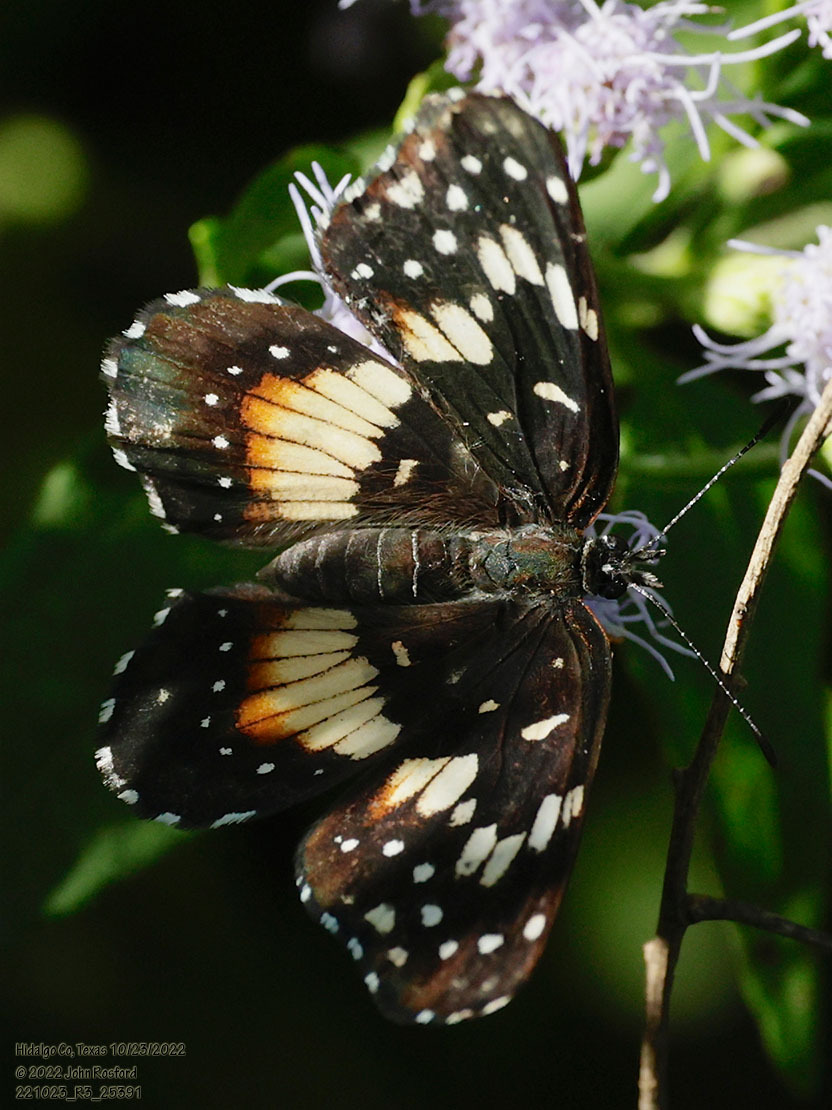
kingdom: Animalia
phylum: Arthropoda
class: Insecta
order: Lepidoptera
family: Nymphalidae
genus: Chlosyne
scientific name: Chlosyne lacinia
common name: Bordered patch
